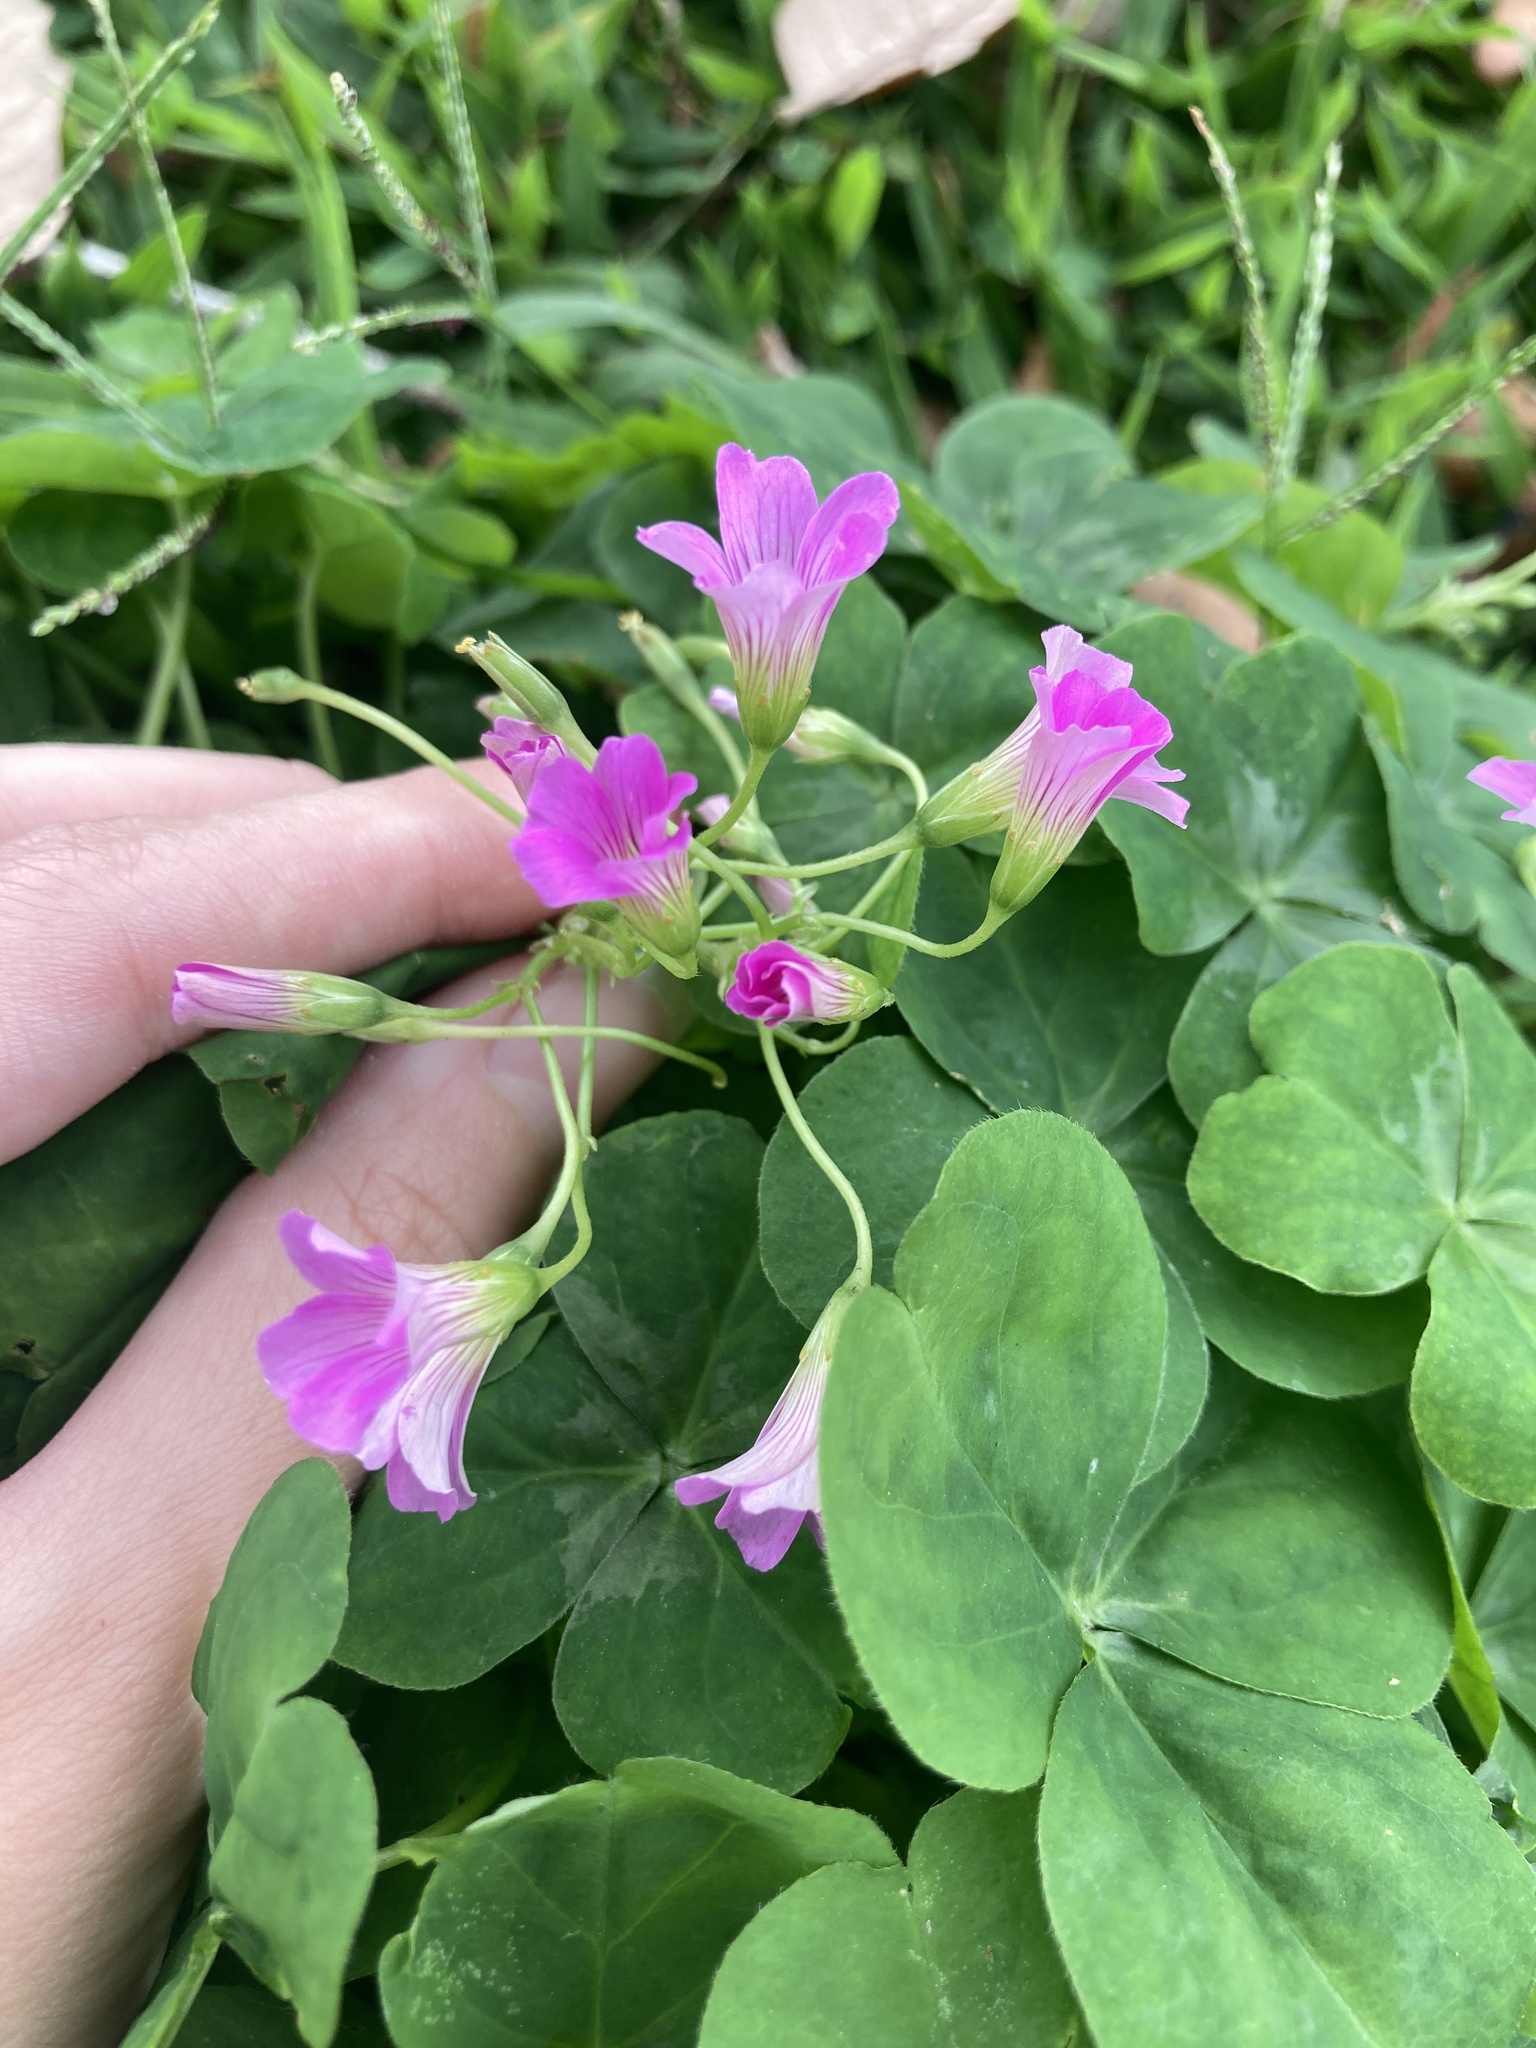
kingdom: Plantae
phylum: Tracheophyta
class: Magnoliopsida
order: Oxalidales
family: Oxalidaceae
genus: Oxalis
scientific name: Oxalis debilis
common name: Large-flowered pink-sorrel
